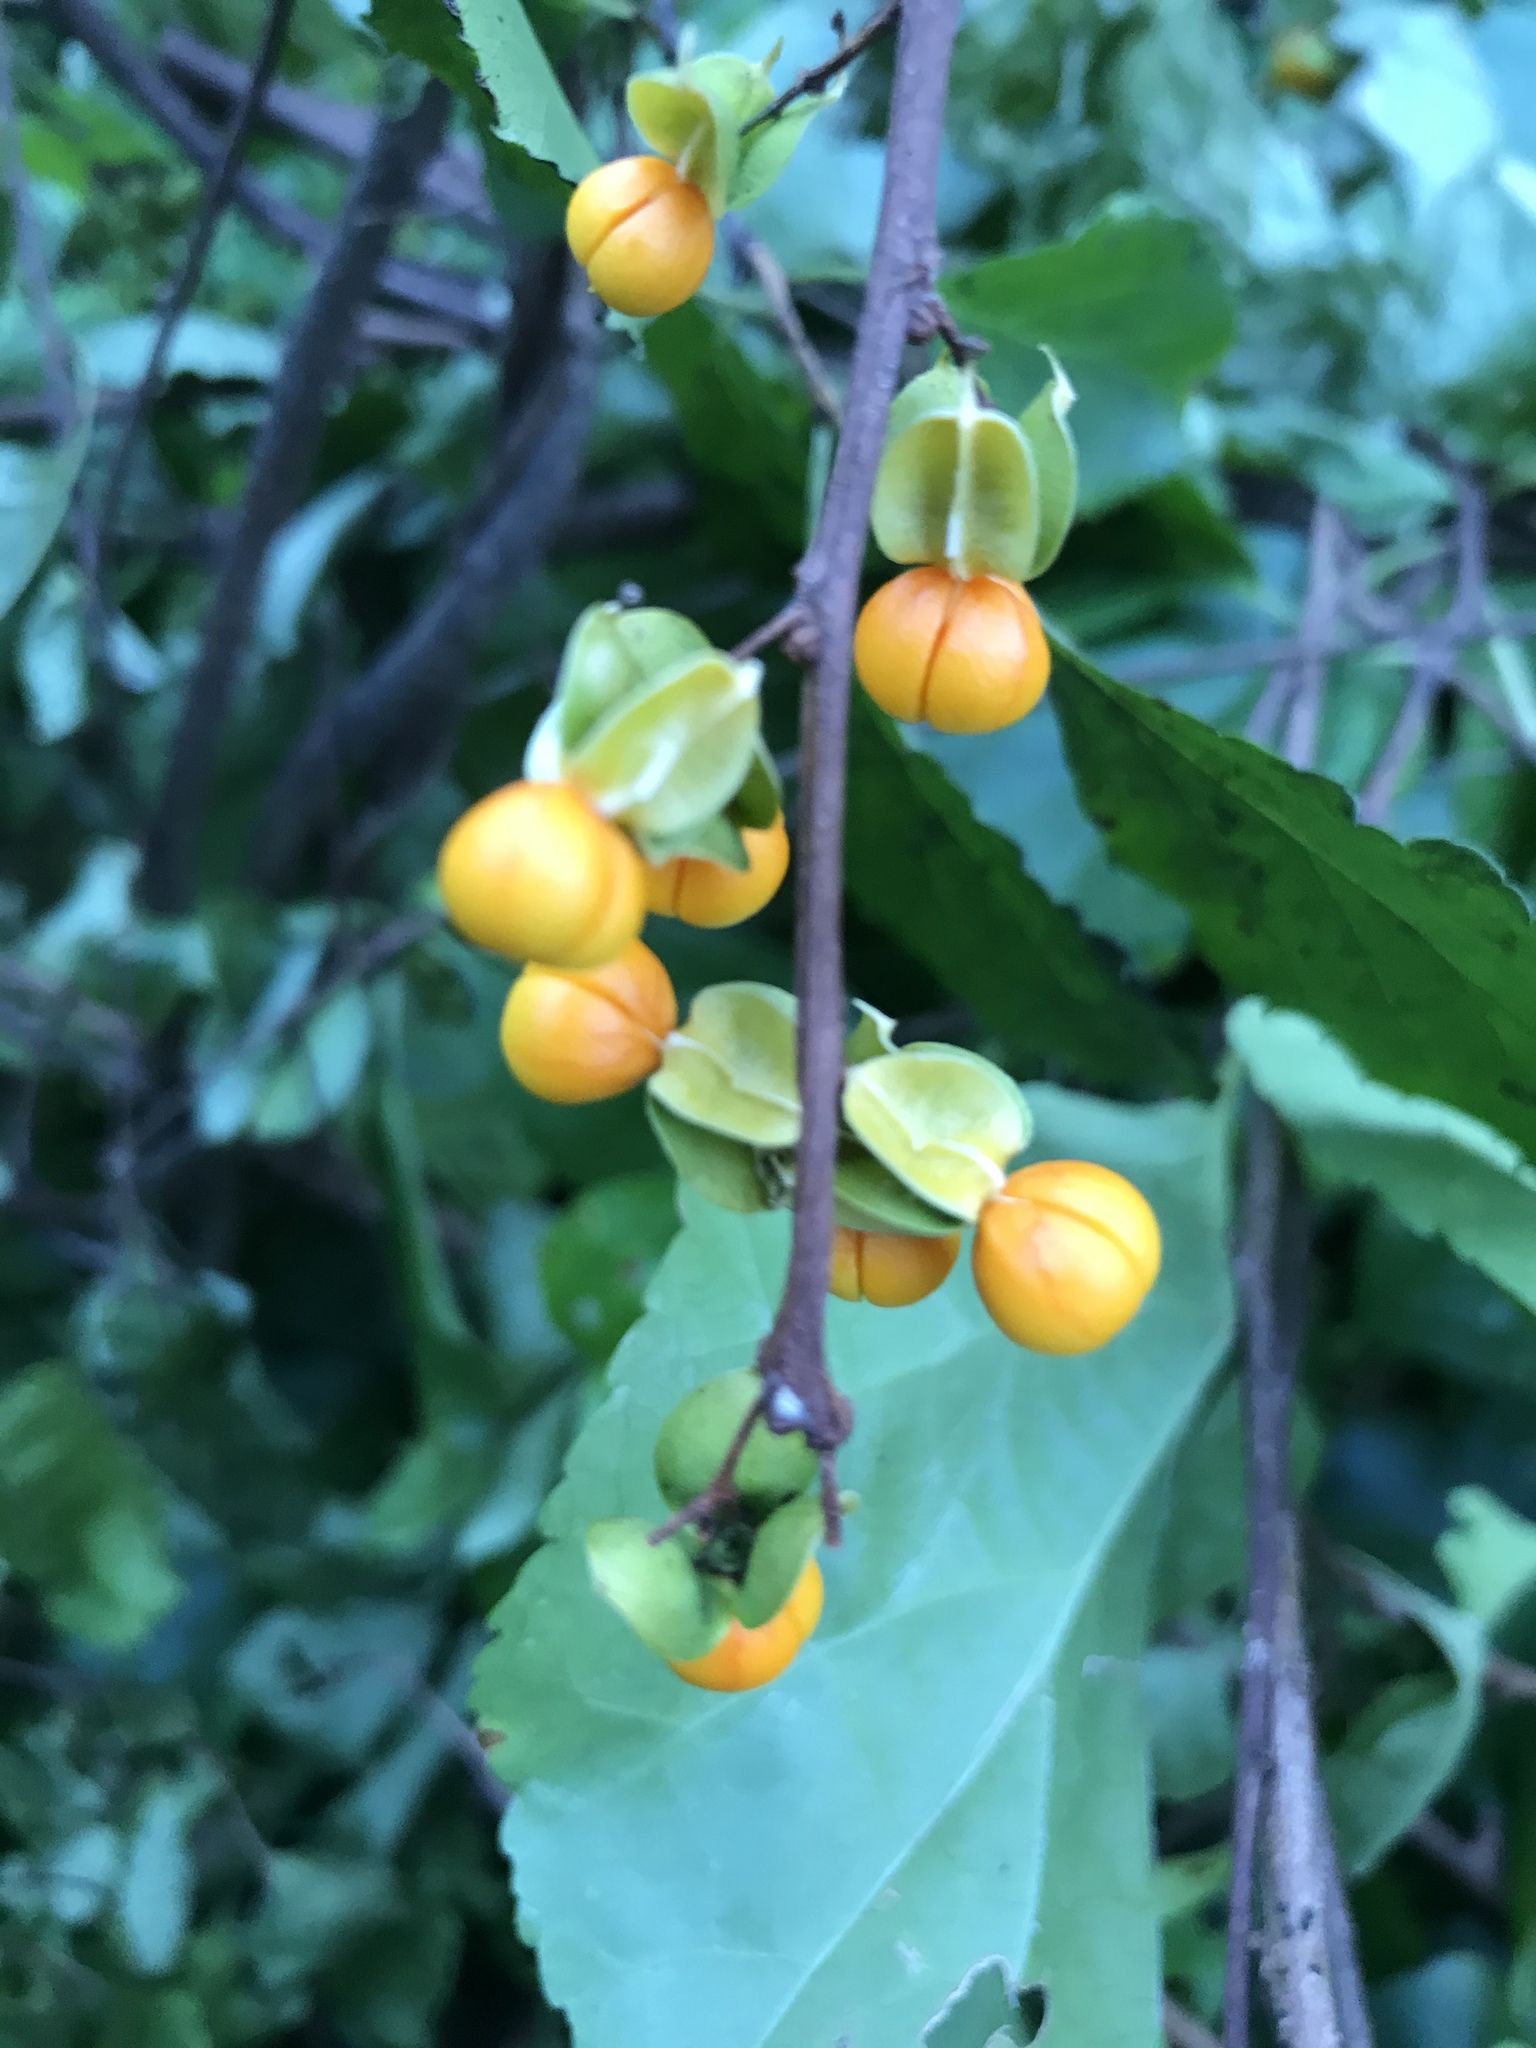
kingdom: Plantae
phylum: Tracheophyta
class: Magnoliopsida
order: Celastrales
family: Celastraceae
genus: Celastrus
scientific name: Celastrus orbiculatus
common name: Oriental bittersweet
